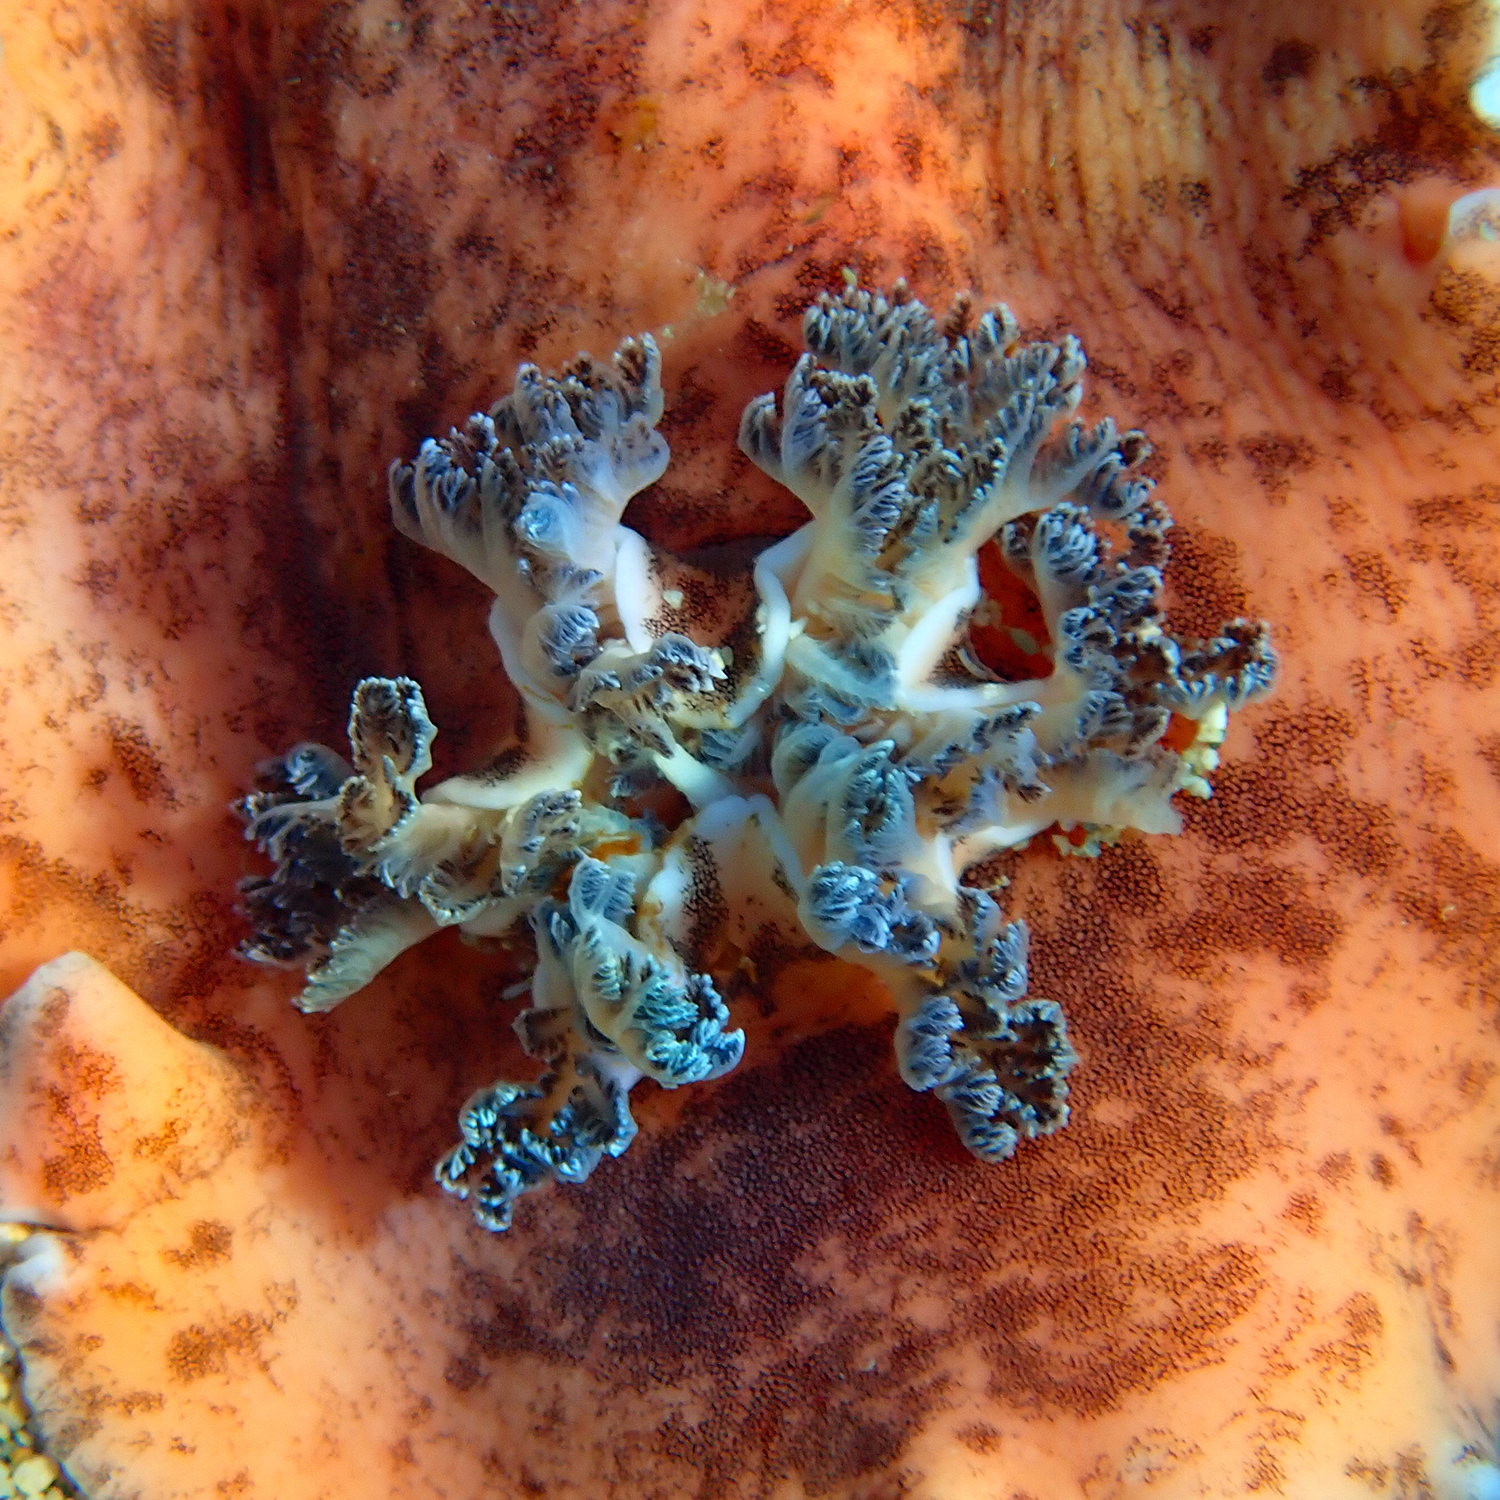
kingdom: Animalia
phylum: Mollusca
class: Gastropoda
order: Nudibranchia
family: Discodorididae
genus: Platydoris
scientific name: Platydoris cinereobranchiata
